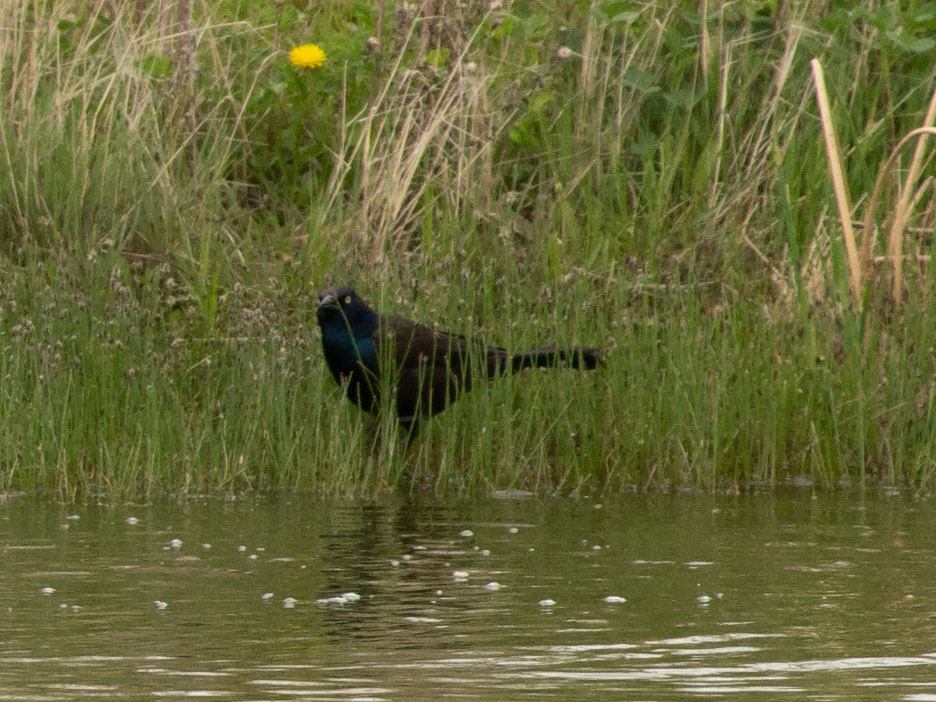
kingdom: Animalia
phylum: Chordata
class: Aves
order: Passeriformes
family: Icteridae
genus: Quiscalus
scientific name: Quiscalus quiscula
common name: Common grackle
